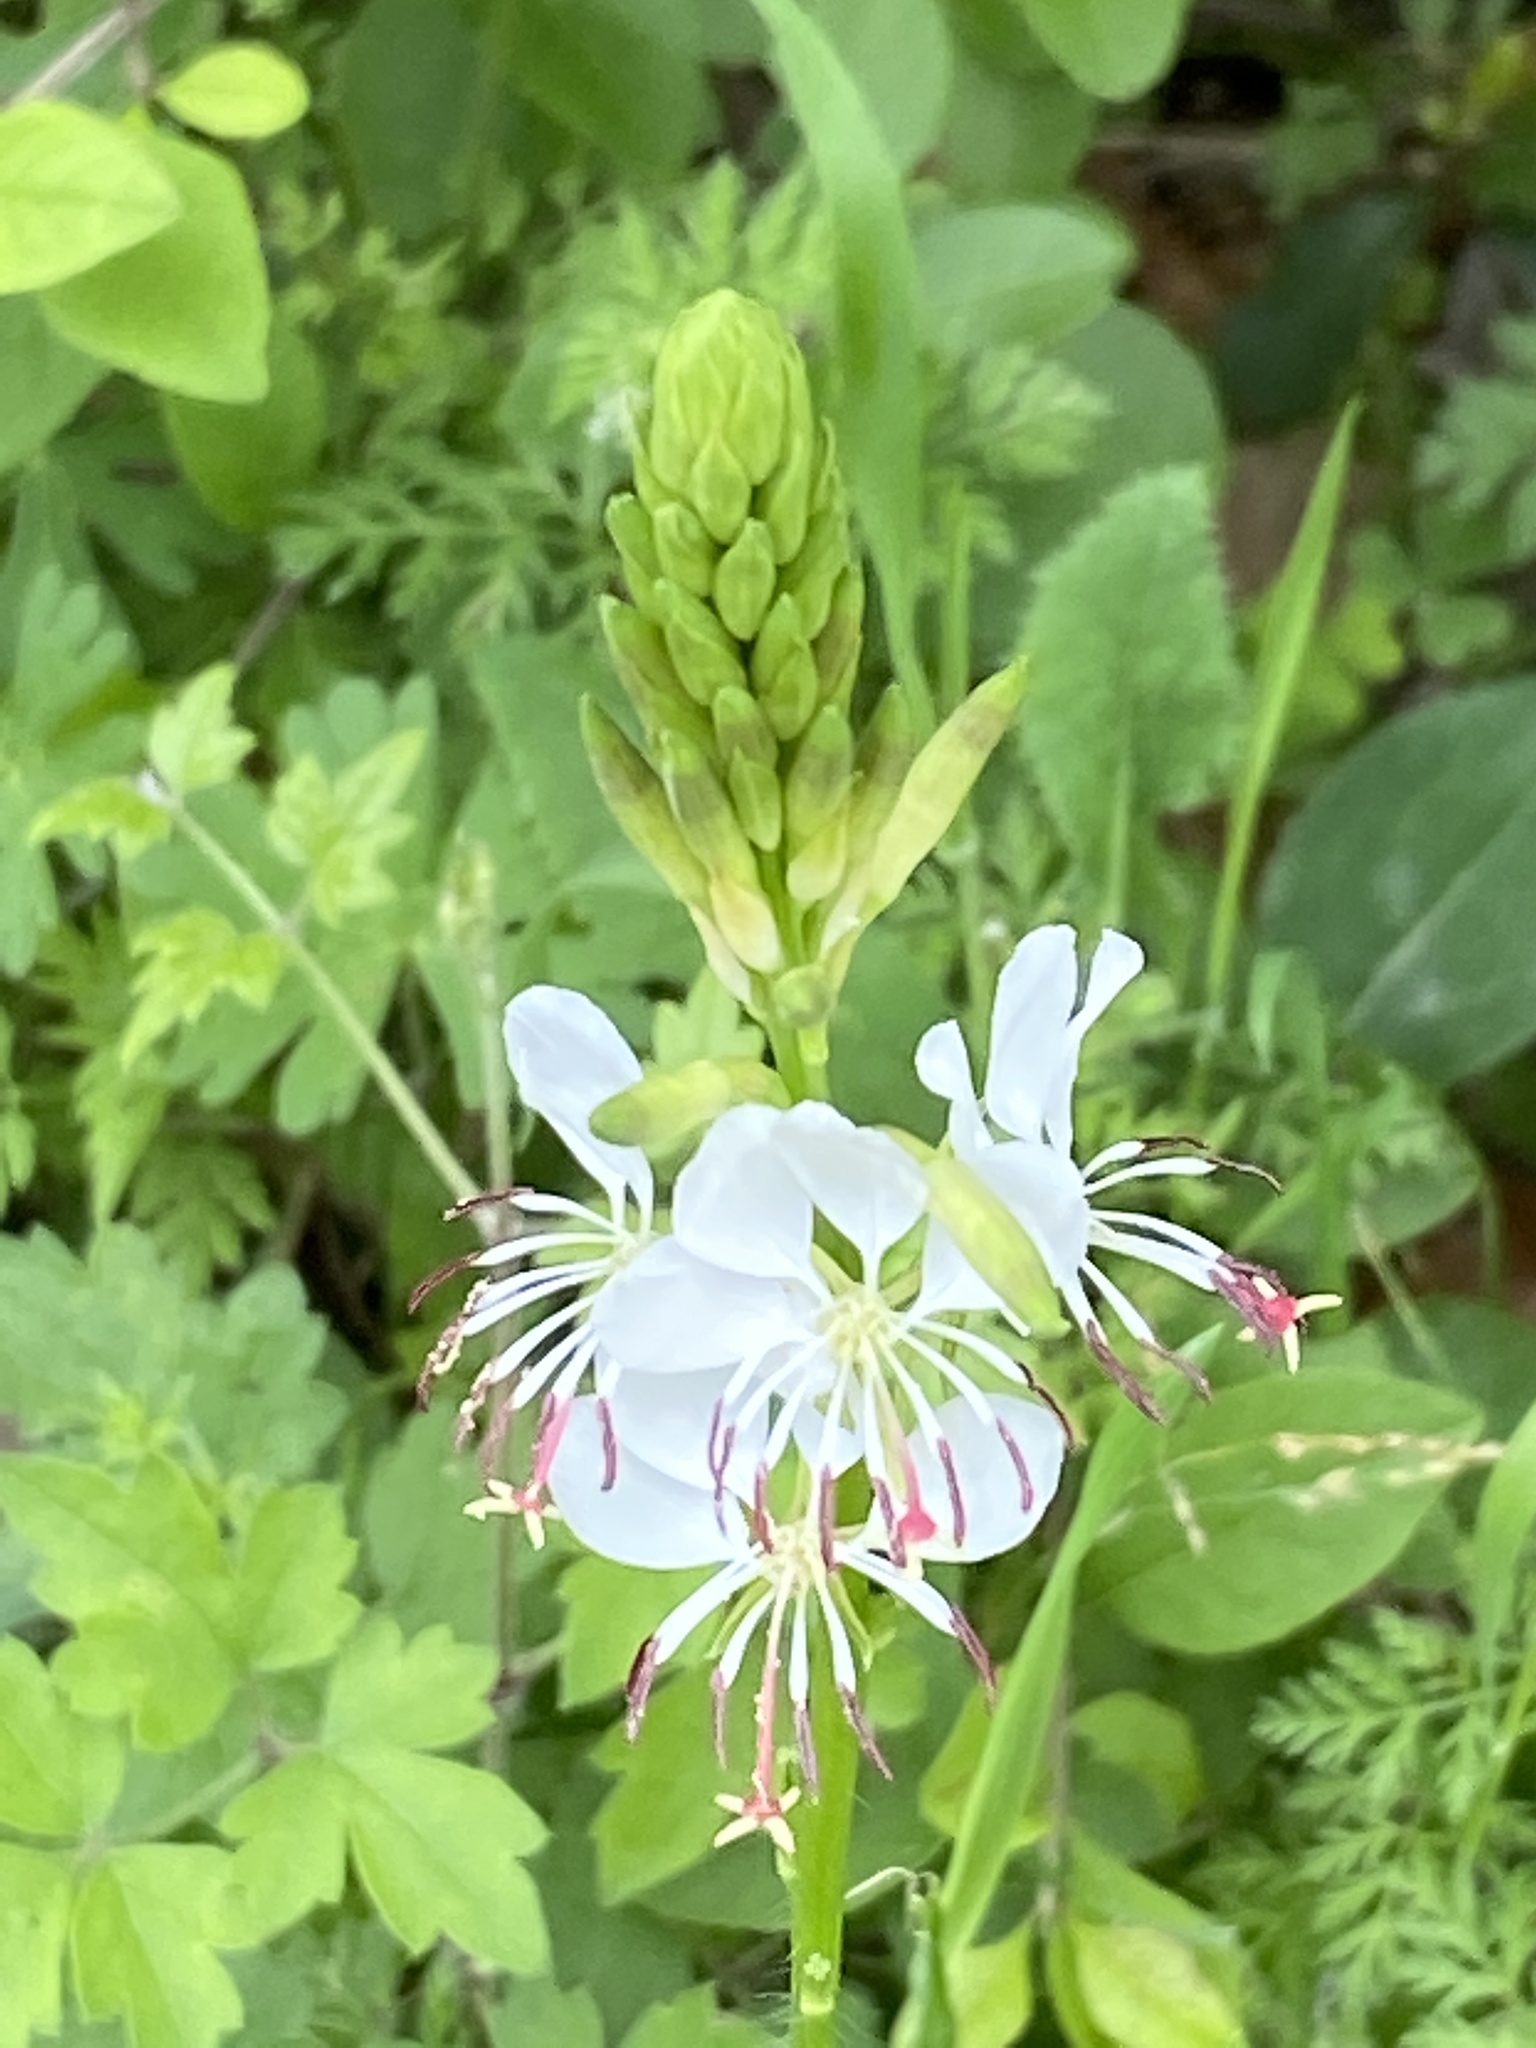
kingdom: Plantae
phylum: Tracheophyta
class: Magnoliopsida
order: Myrtales
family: Onagraceae
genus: Oenothera
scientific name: Oenothera suffulta
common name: Kisses
